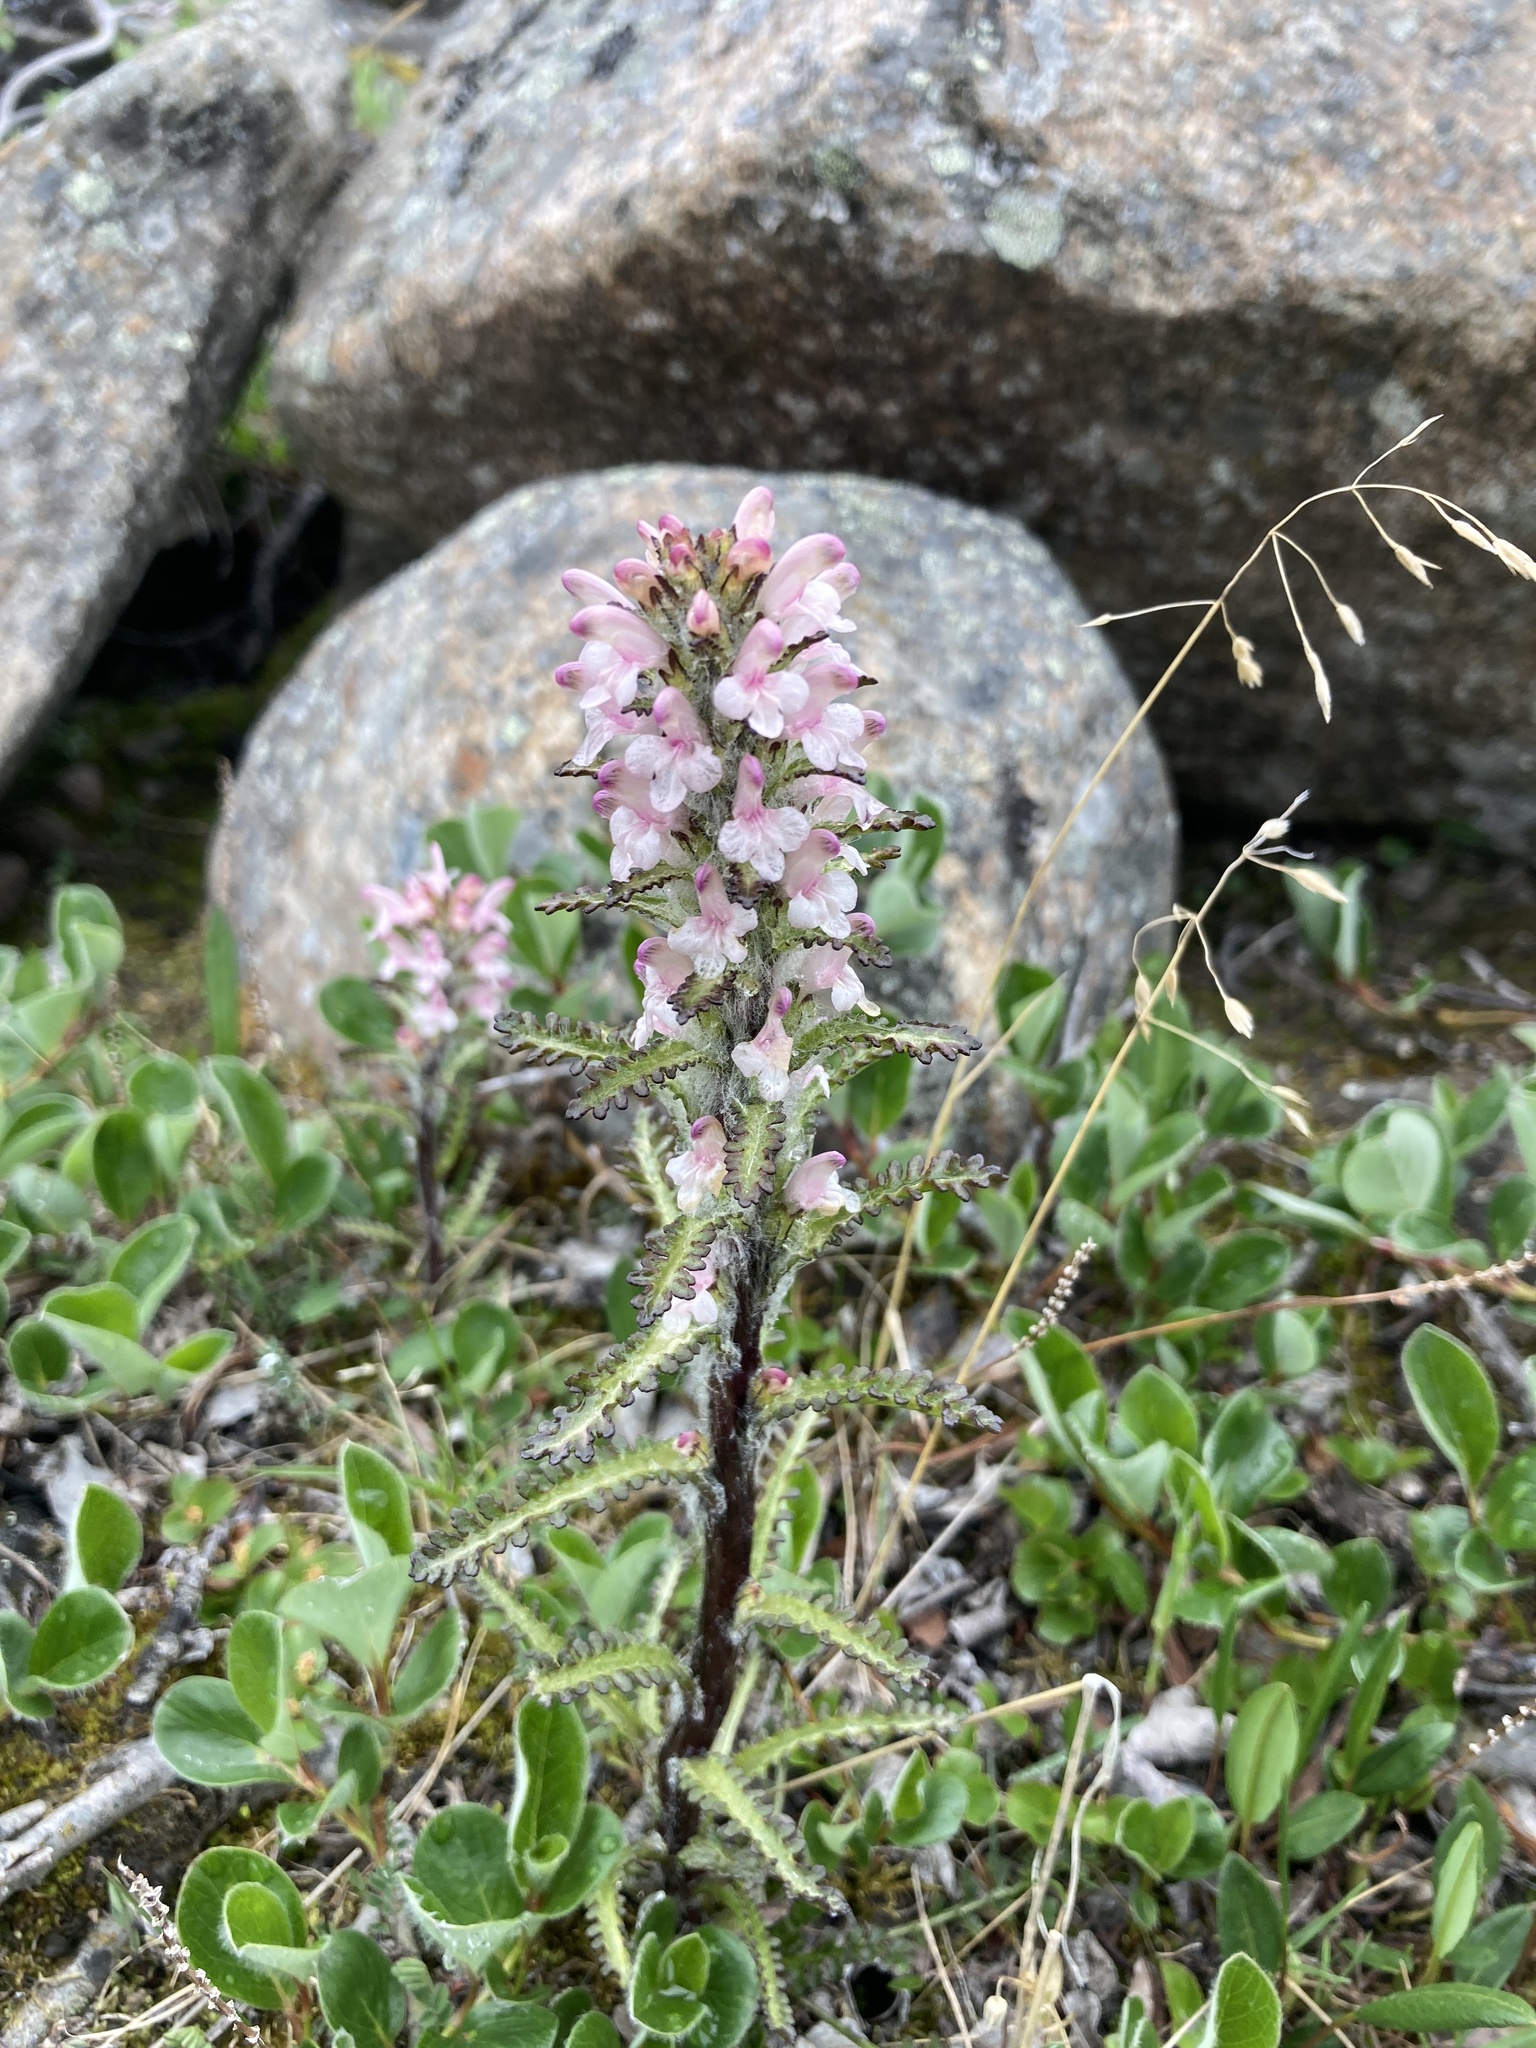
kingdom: Plantae
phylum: Tracheophyta
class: Magnoliopsida
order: Lamiales
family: Orobanchaceae
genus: Pedicularis
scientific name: Pedicularis hirsuta
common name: Hairy lousewort
